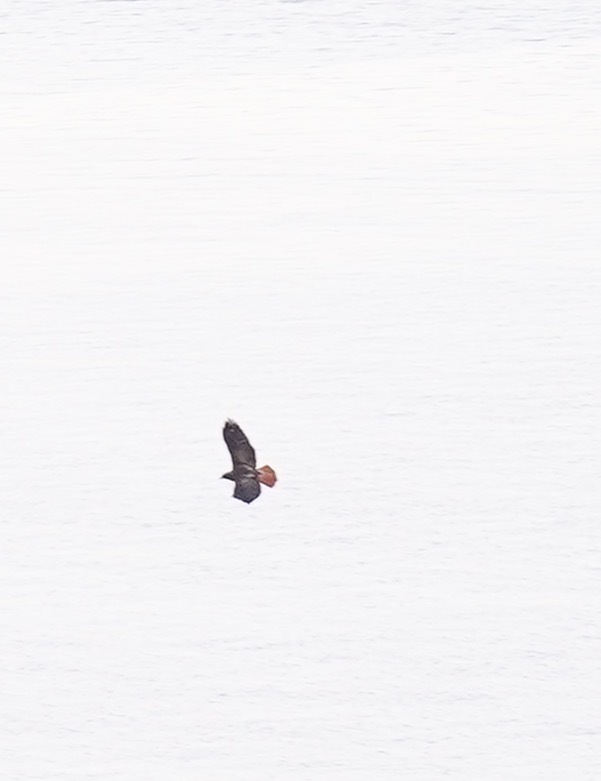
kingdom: Animalia
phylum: Chordata
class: Aves
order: Accipitriformes
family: Accipitridae
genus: Buteo
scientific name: Buteo jamaicensis
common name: Red-tailed hawk
